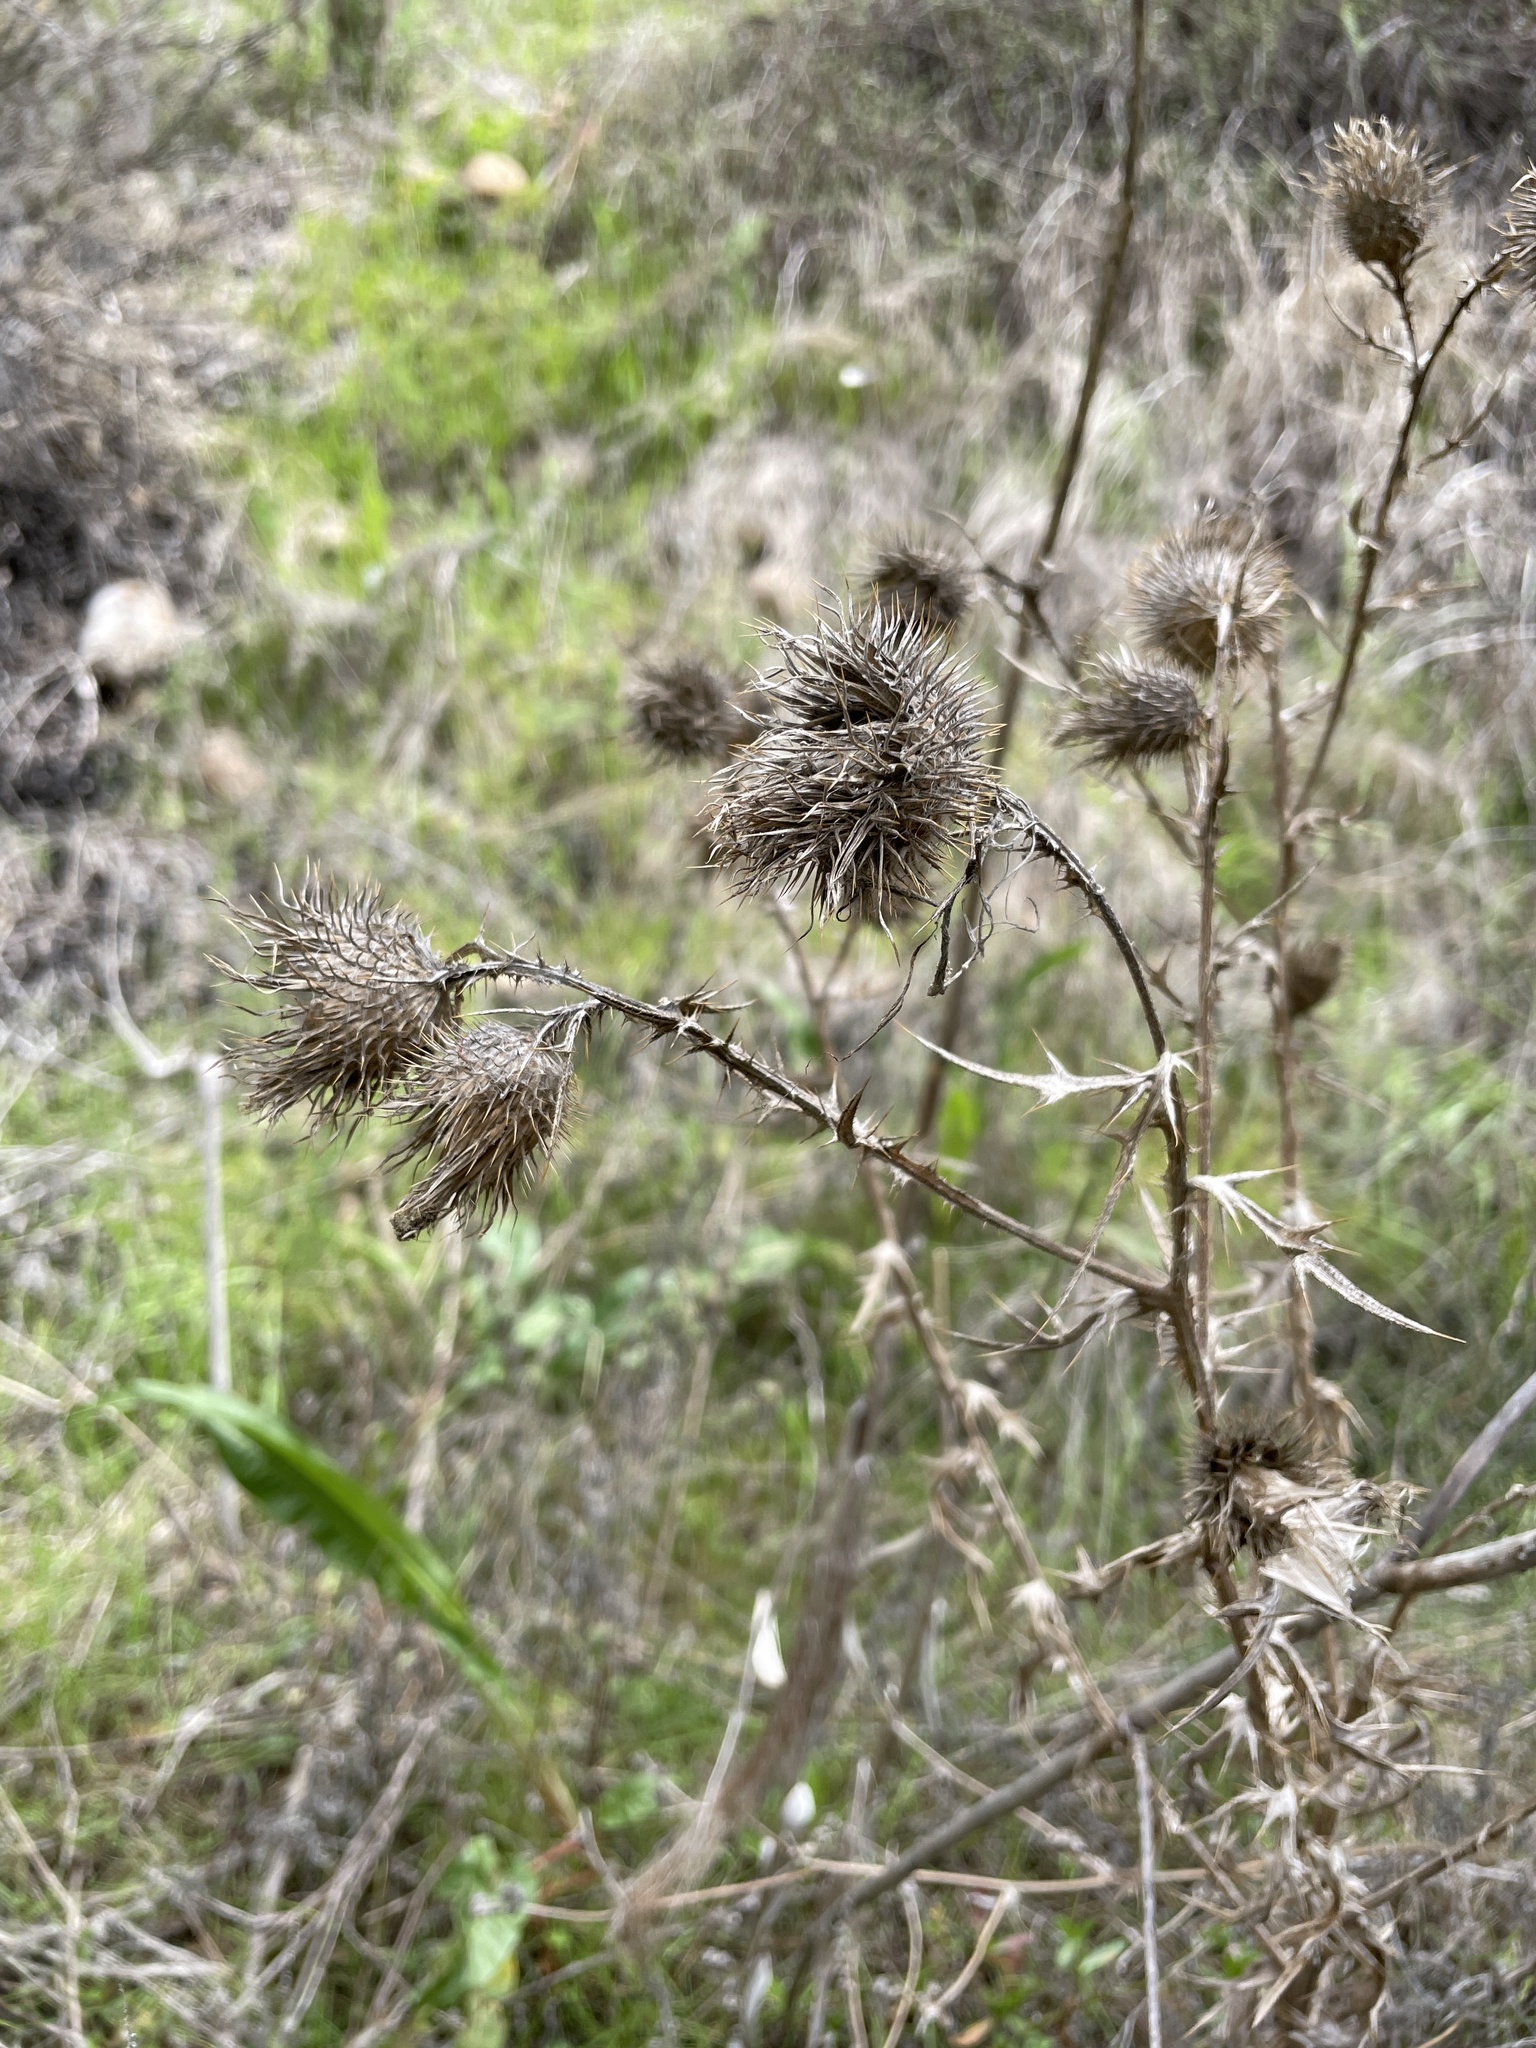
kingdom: Plantae
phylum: Tracheophyta
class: Magnoliopsida
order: Asterales
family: Asteraceae
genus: Cirsium
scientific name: Cirsium vulgare
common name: Bull thistle
